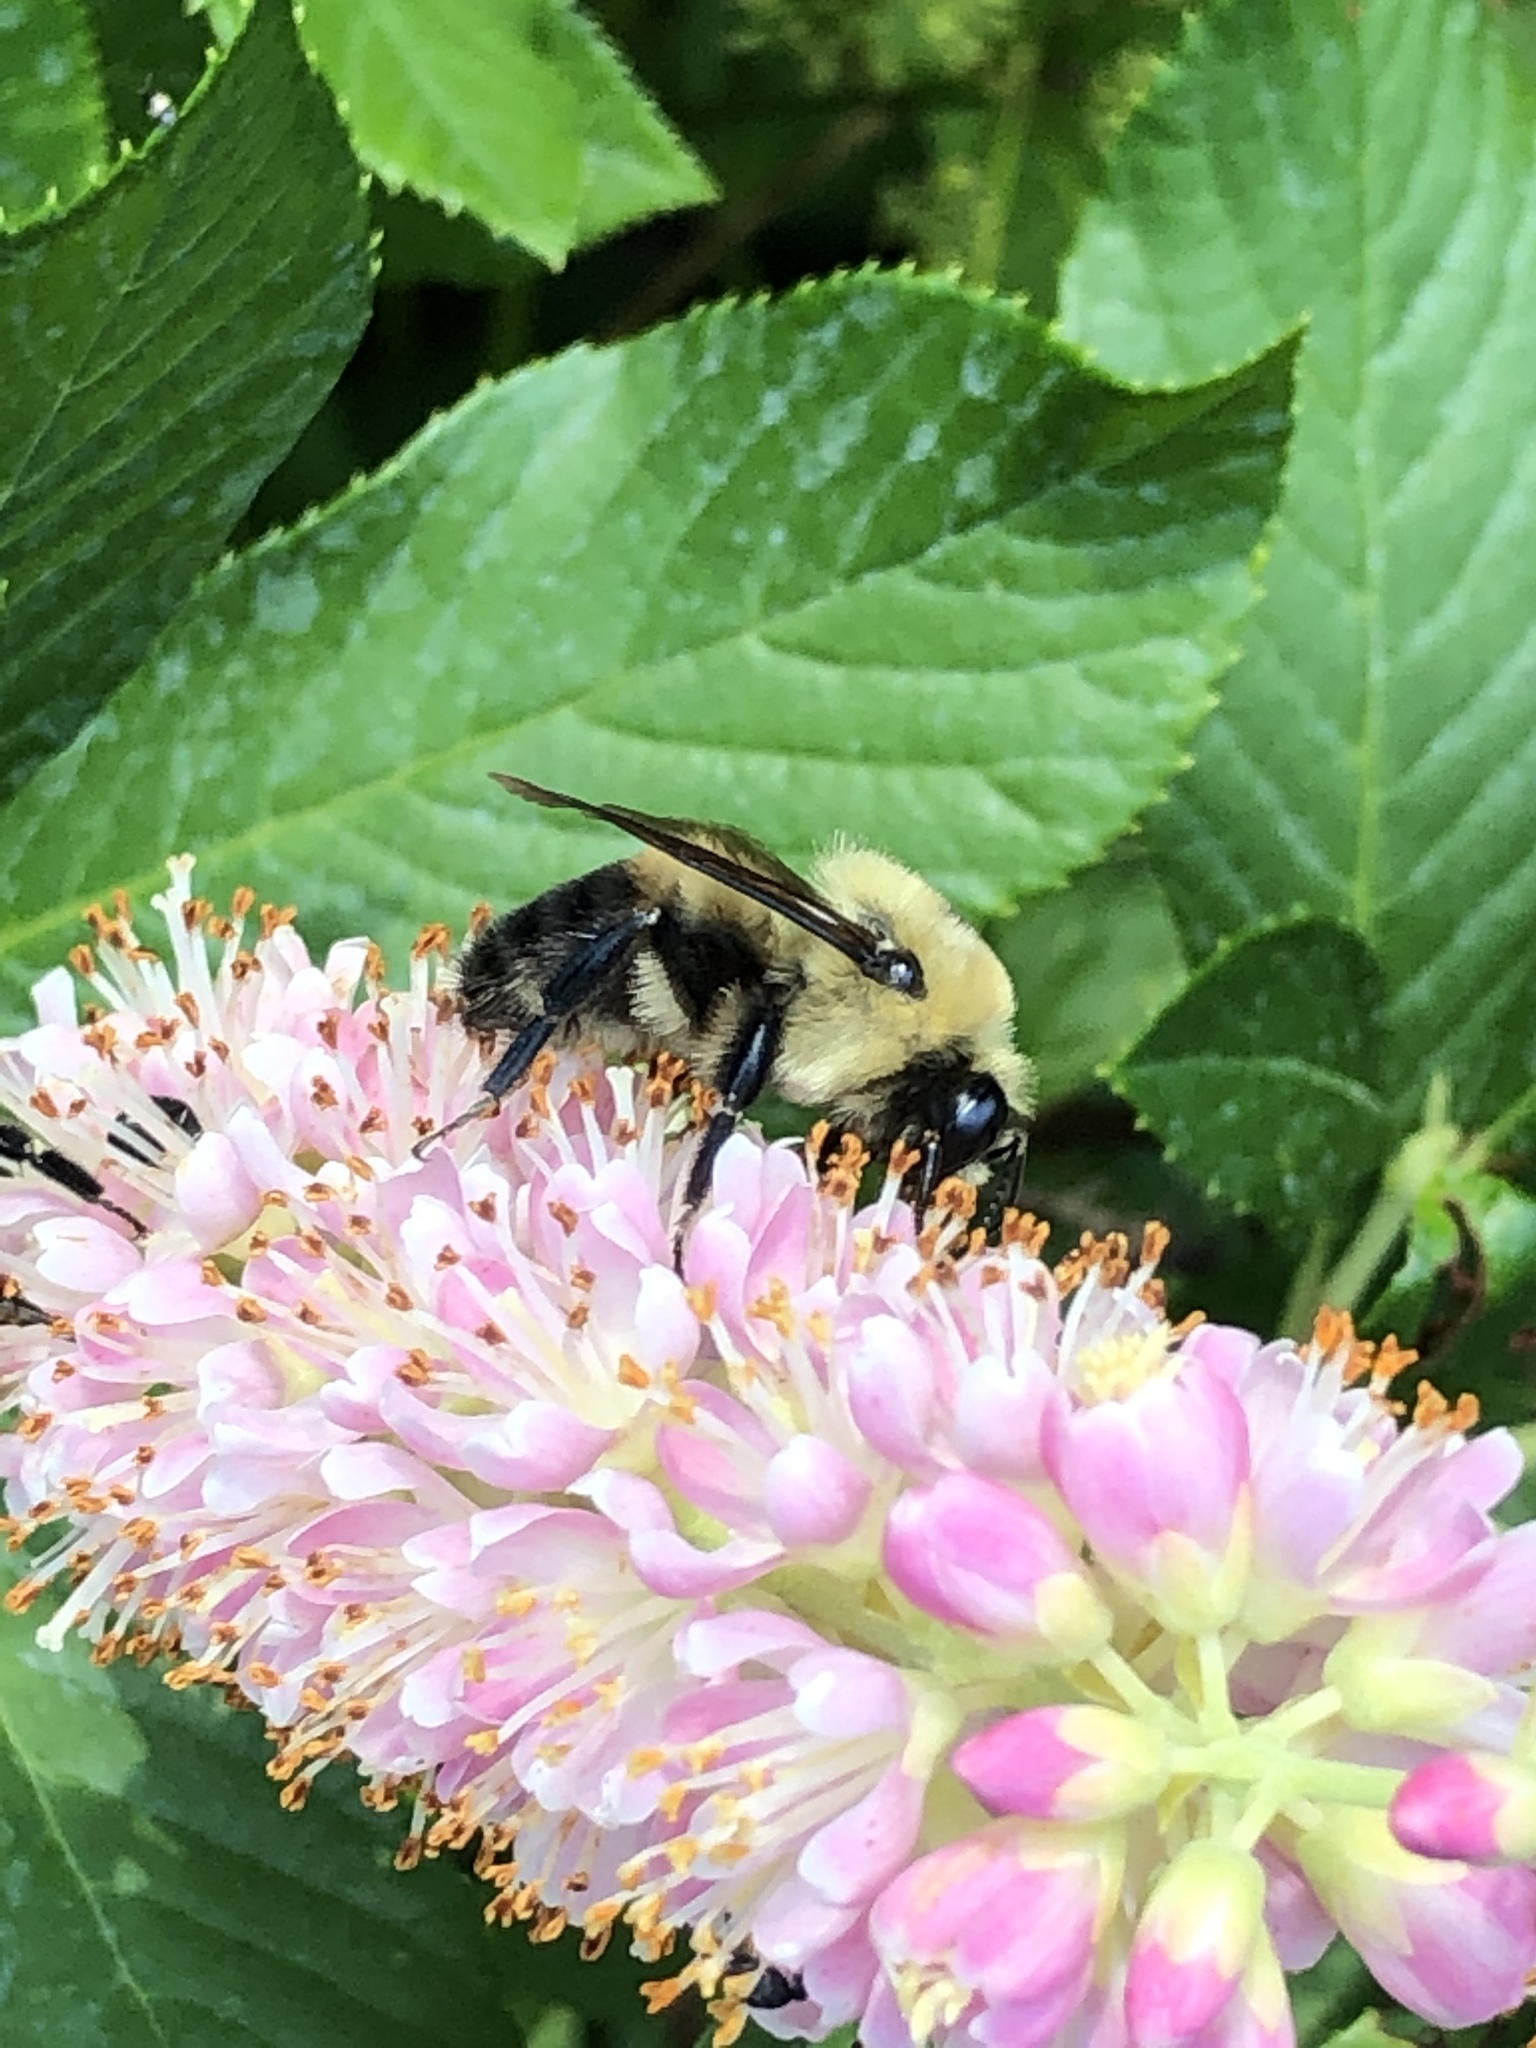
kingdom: Animalia
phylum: Arthropoda
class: Insecta
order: Hymenoptera
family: Apidae
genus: Bombus
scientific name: Bombus griseocollis
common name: Brown-belted bumble bee
